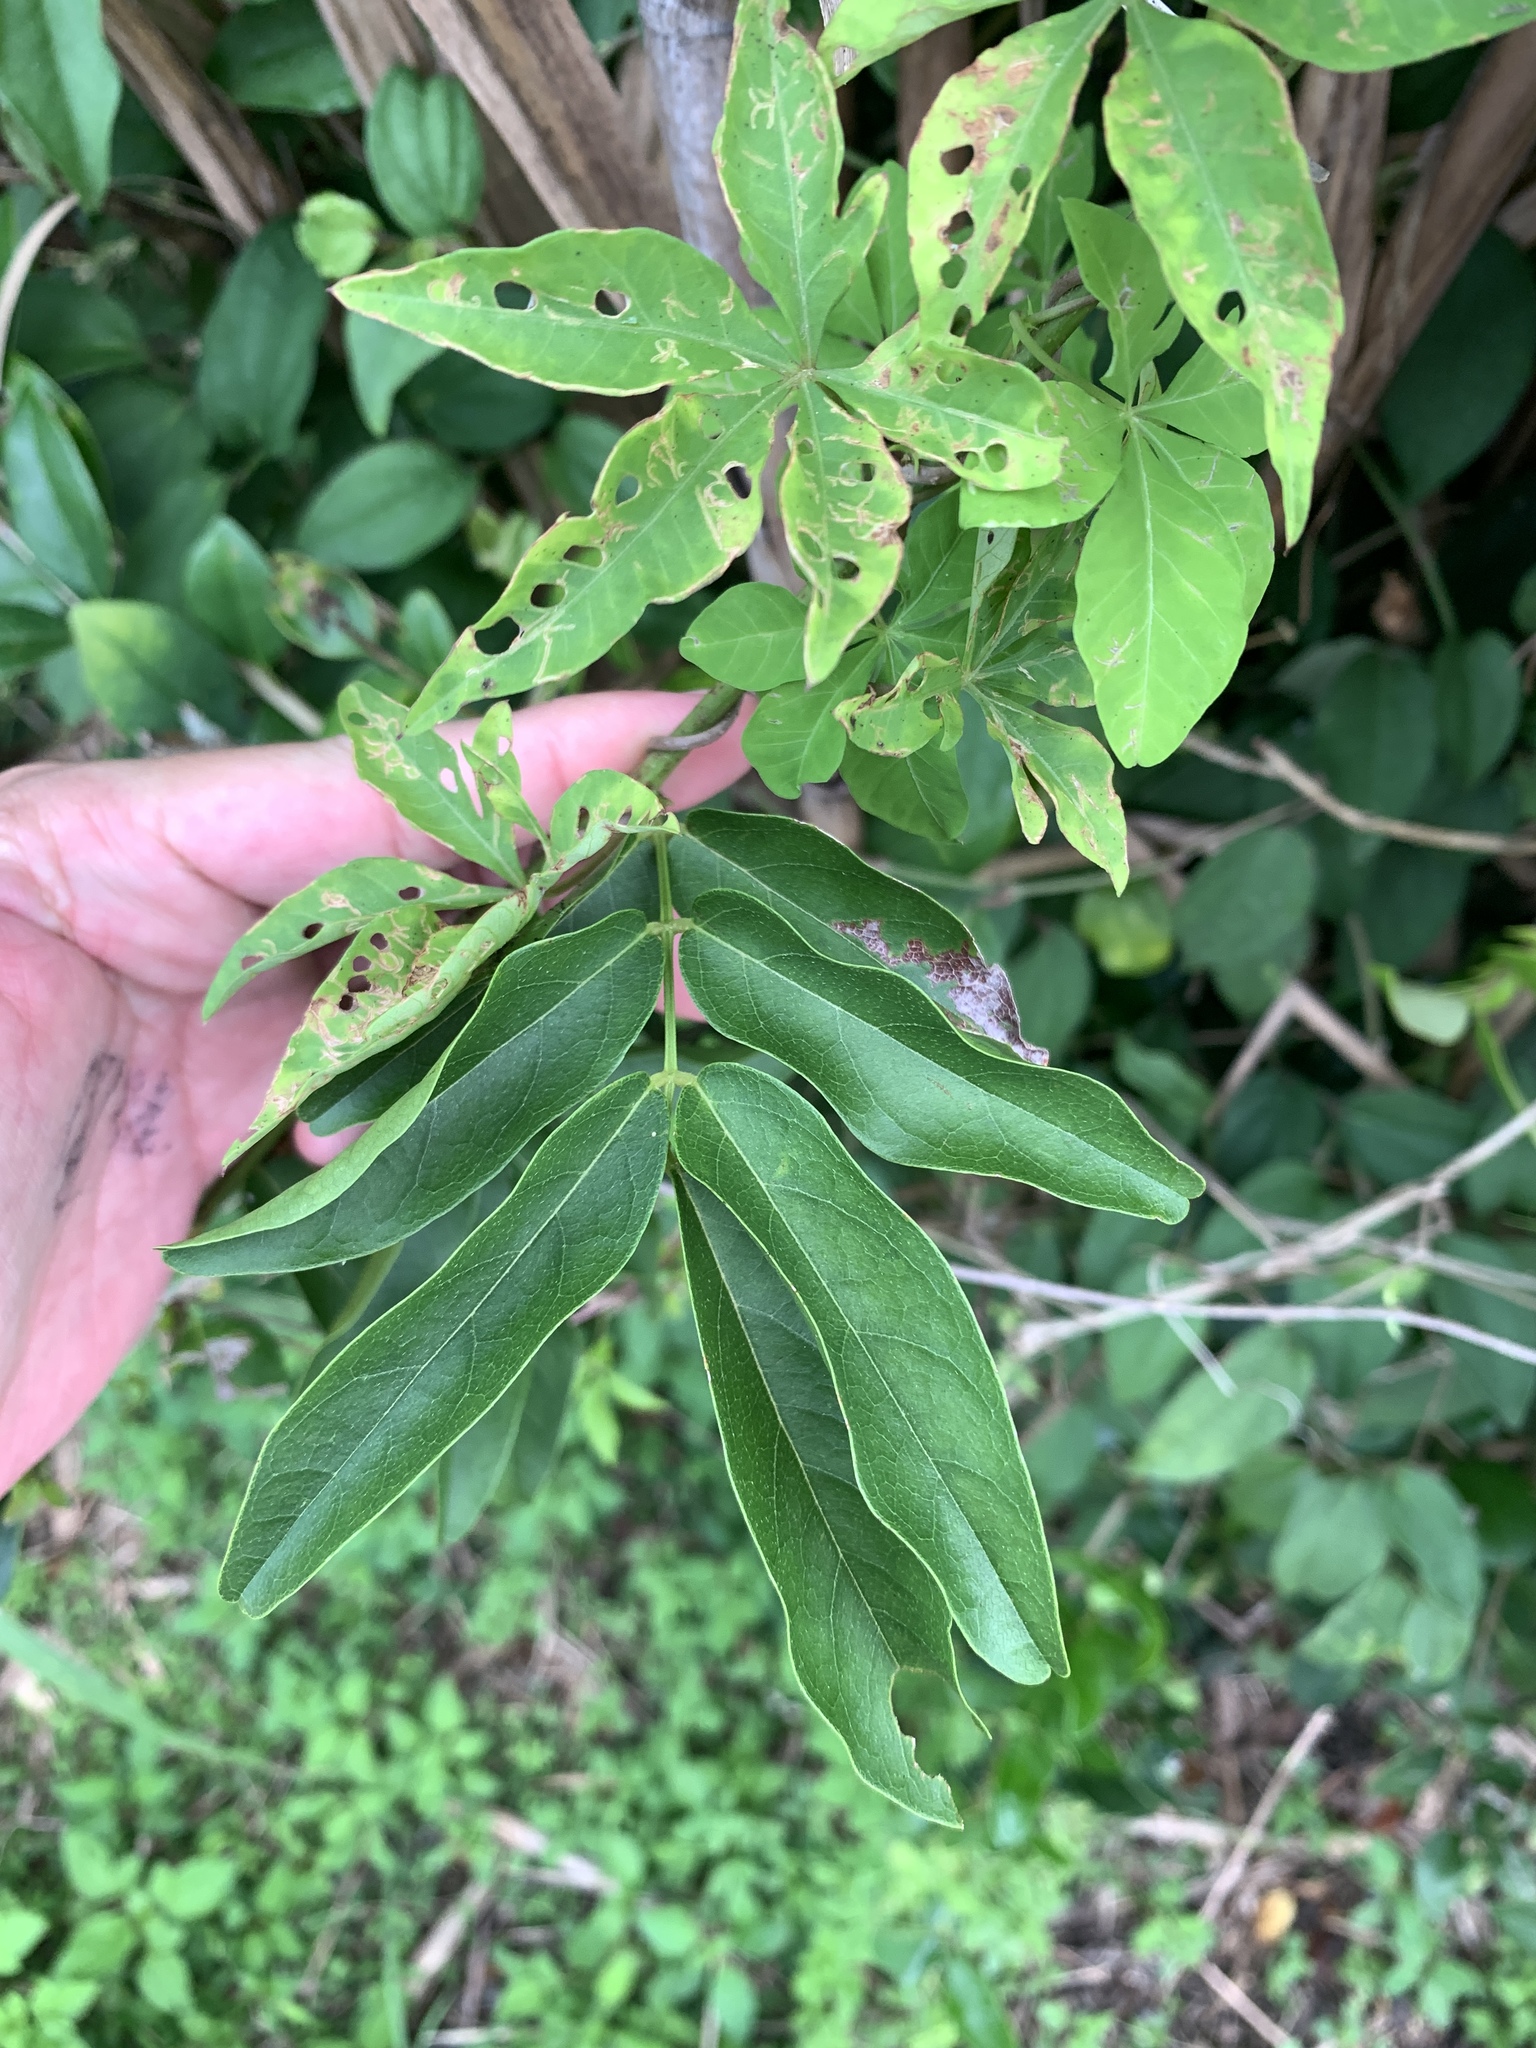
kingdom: Plantae
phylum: Tracheophyta
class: Magnoliopsida
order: Fabales
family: Fabaceae
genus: Wisteriopsis
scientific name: Wisteriopsis reticulata
